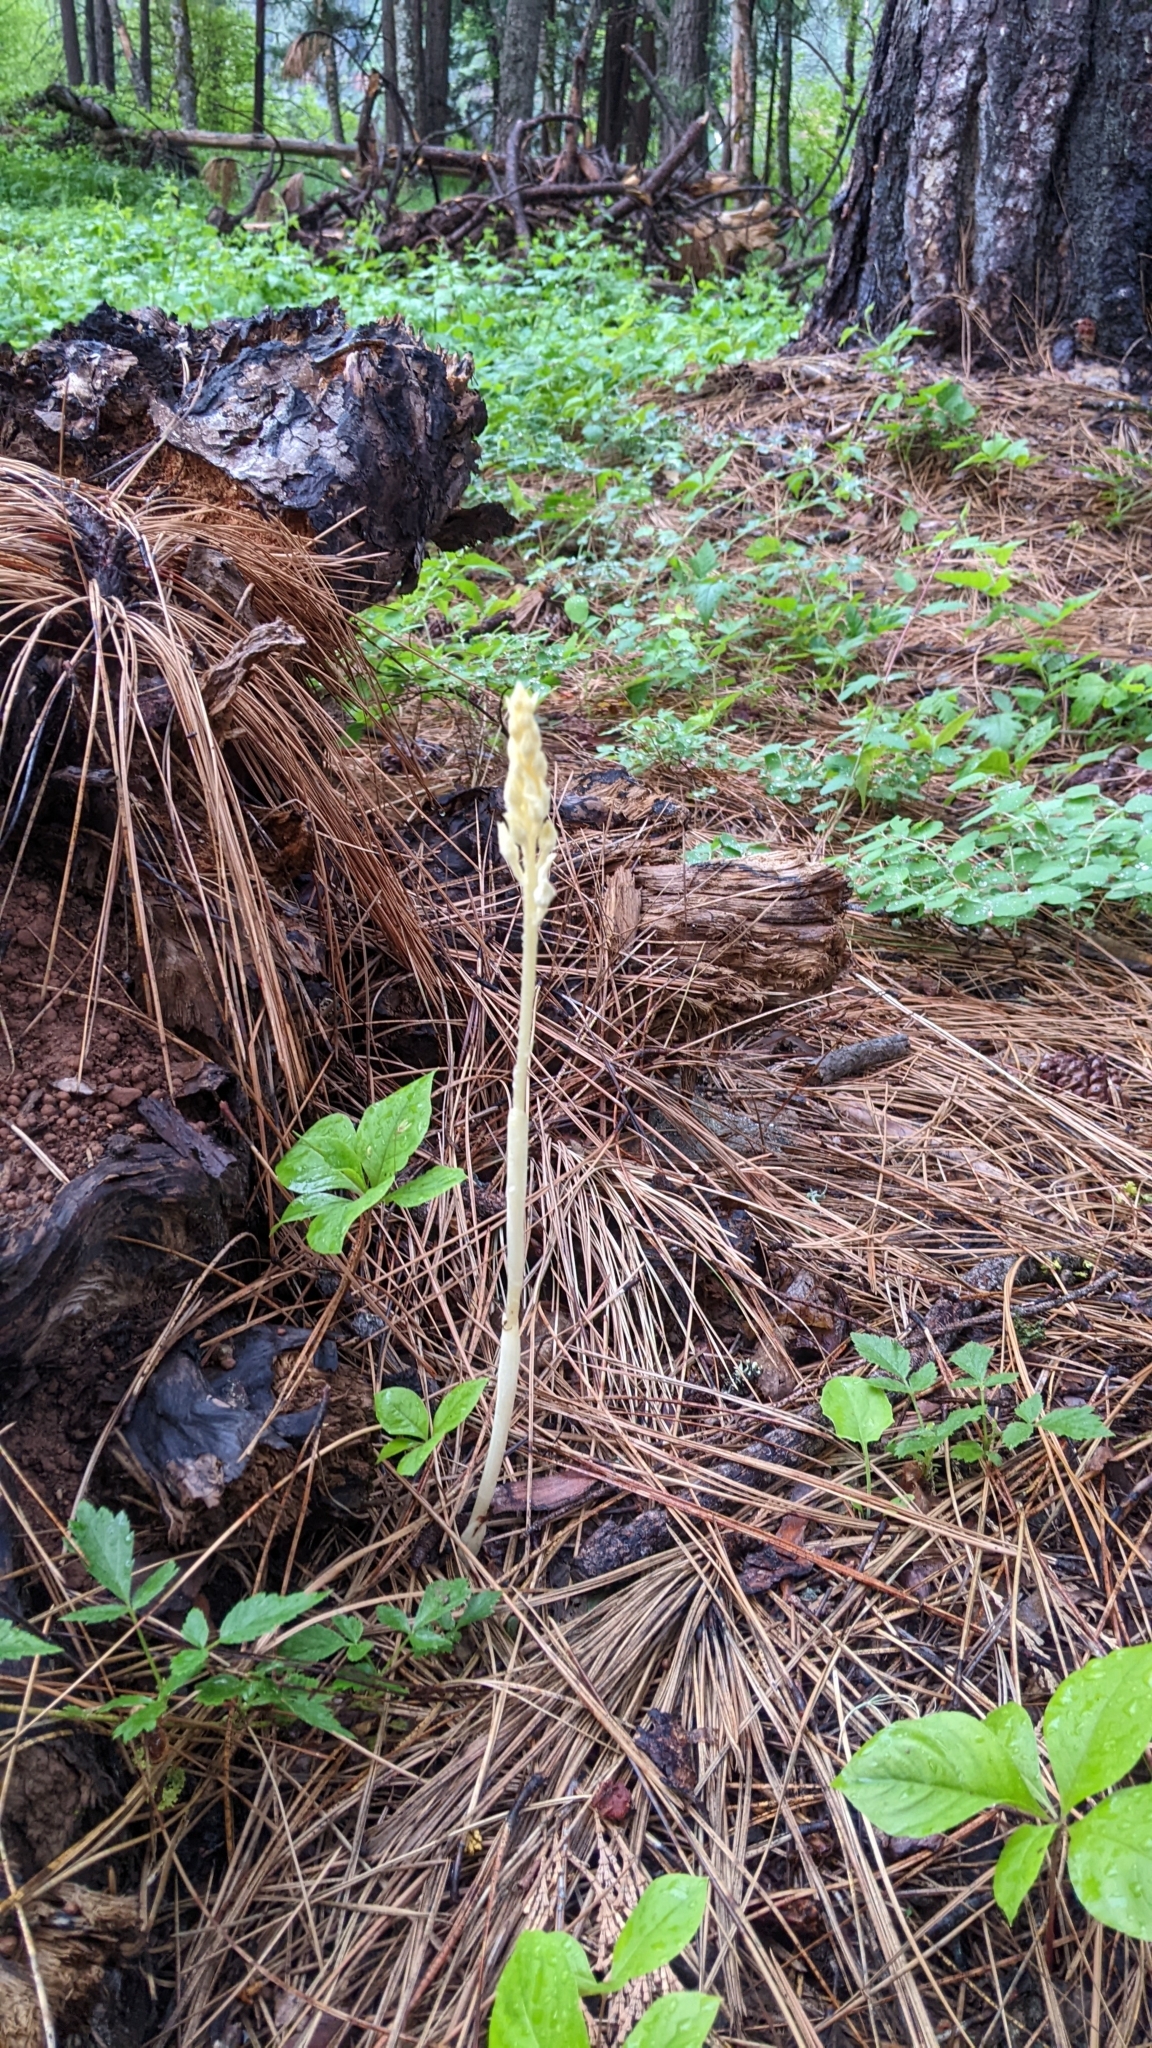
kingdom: Plantae
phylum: Tracheophyta
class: Liliopsida
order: Asparagales
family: Orchidaceae
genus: Cephalanthera
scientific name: Cephalanthera austiniae
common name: Phantom orchid
